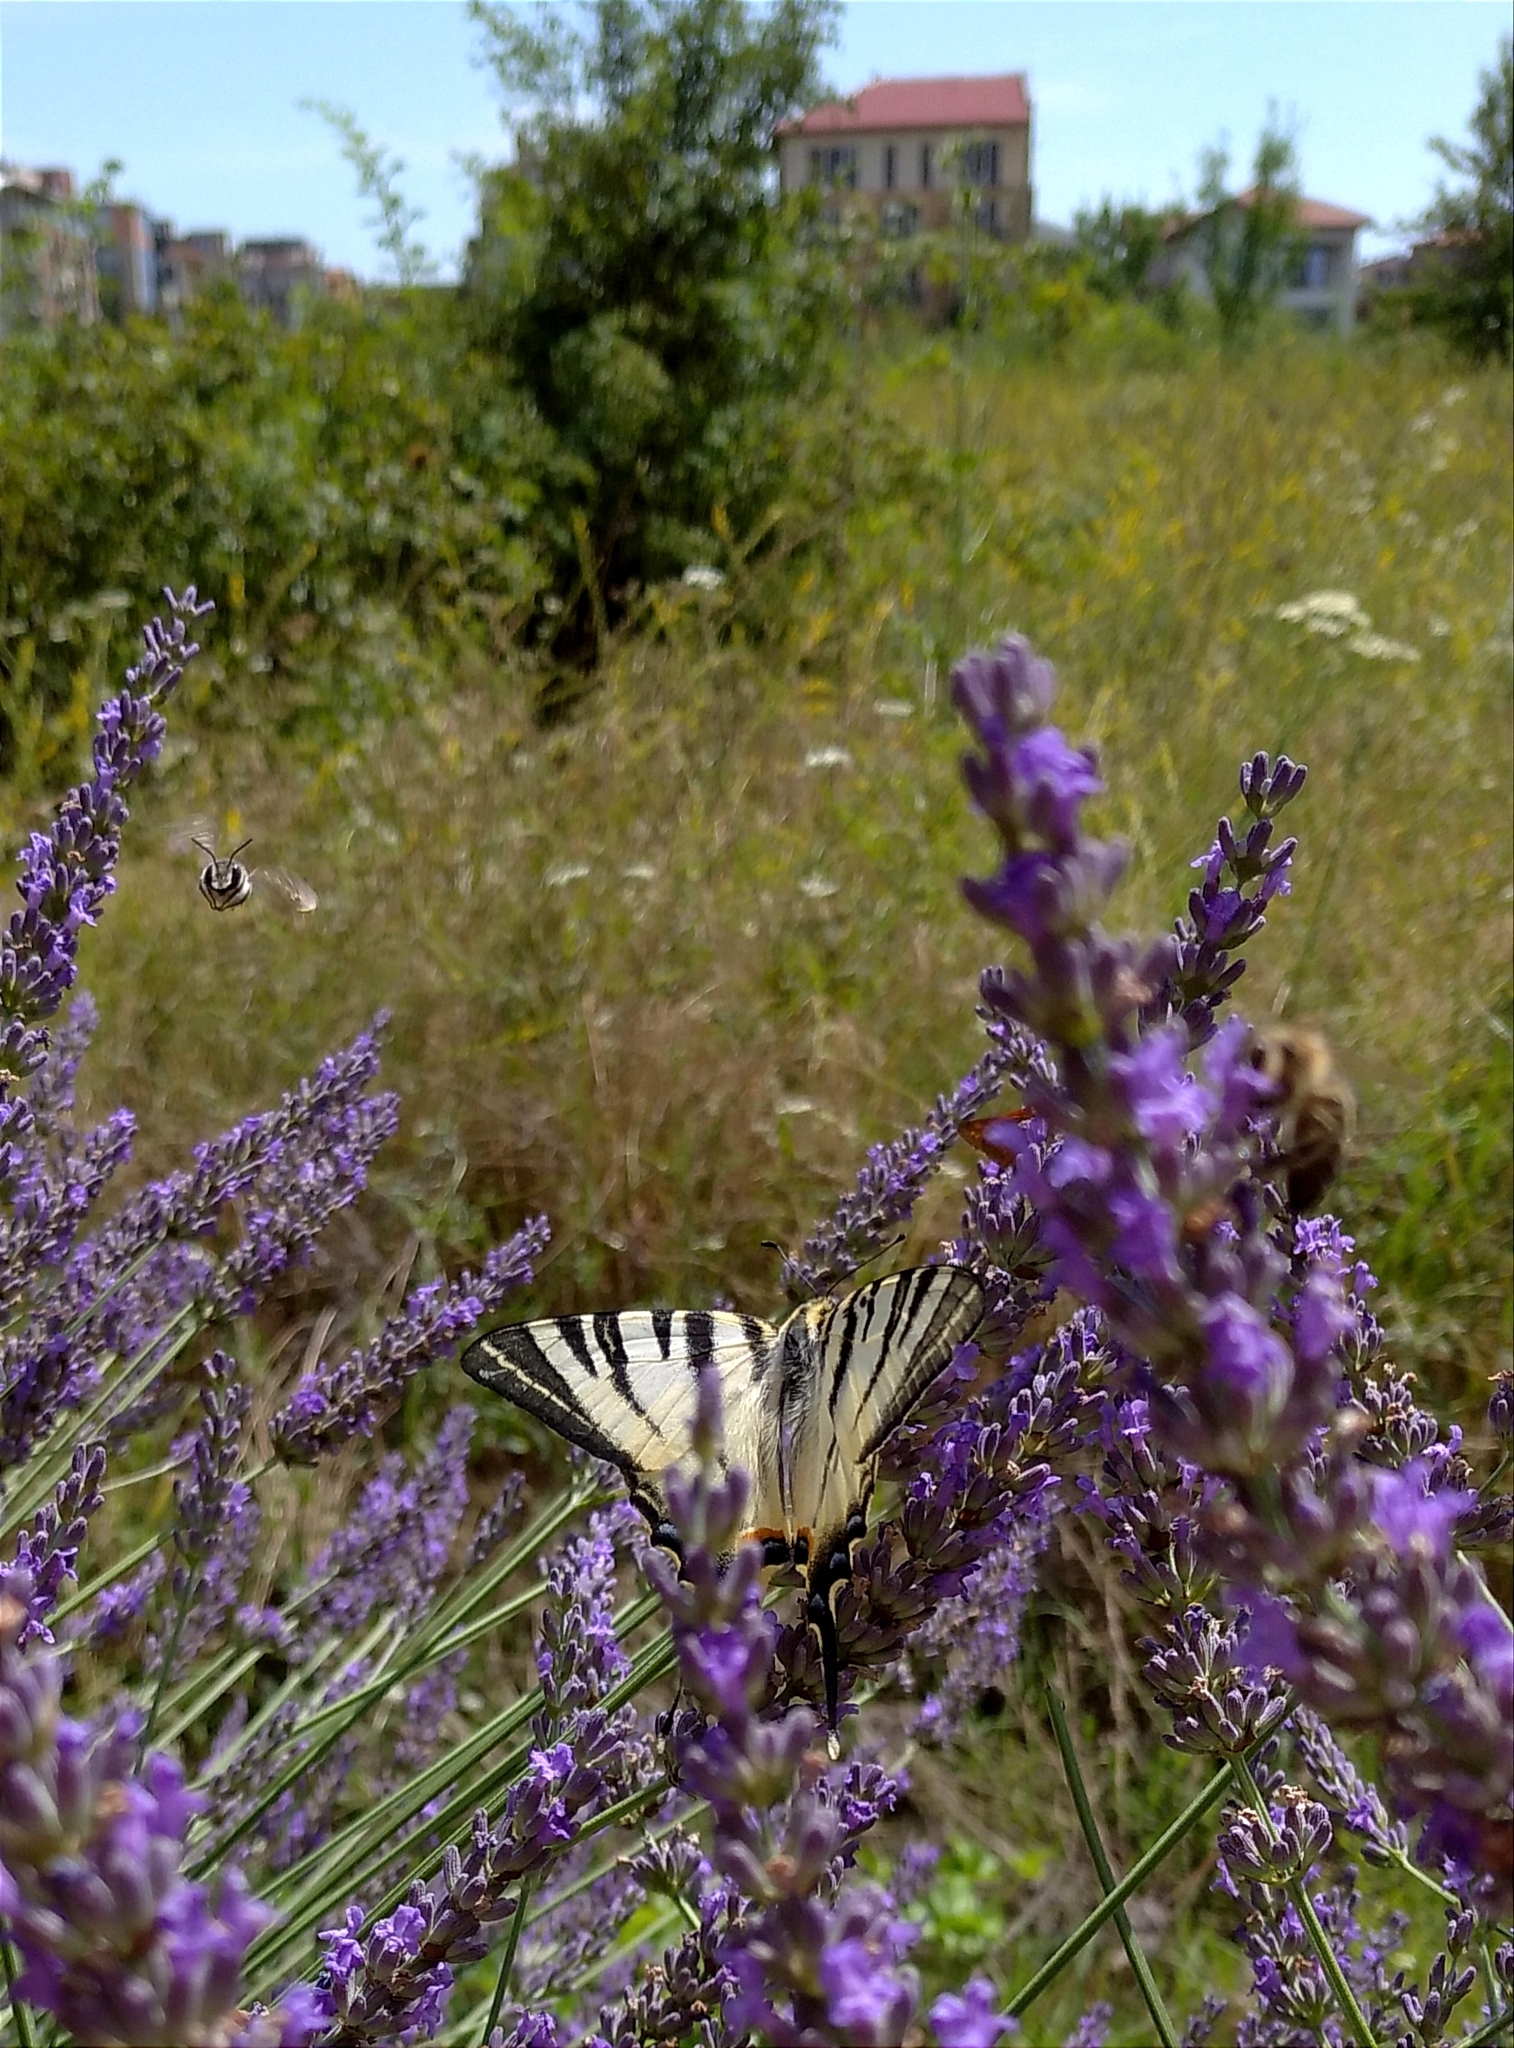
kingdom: Animalia
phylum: Arthropoda
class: Insecta
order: Lepidoptera
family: Papilionidae
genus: Iphiclides
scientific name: Iphiclides podalirius
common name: Scarce swallowtail
